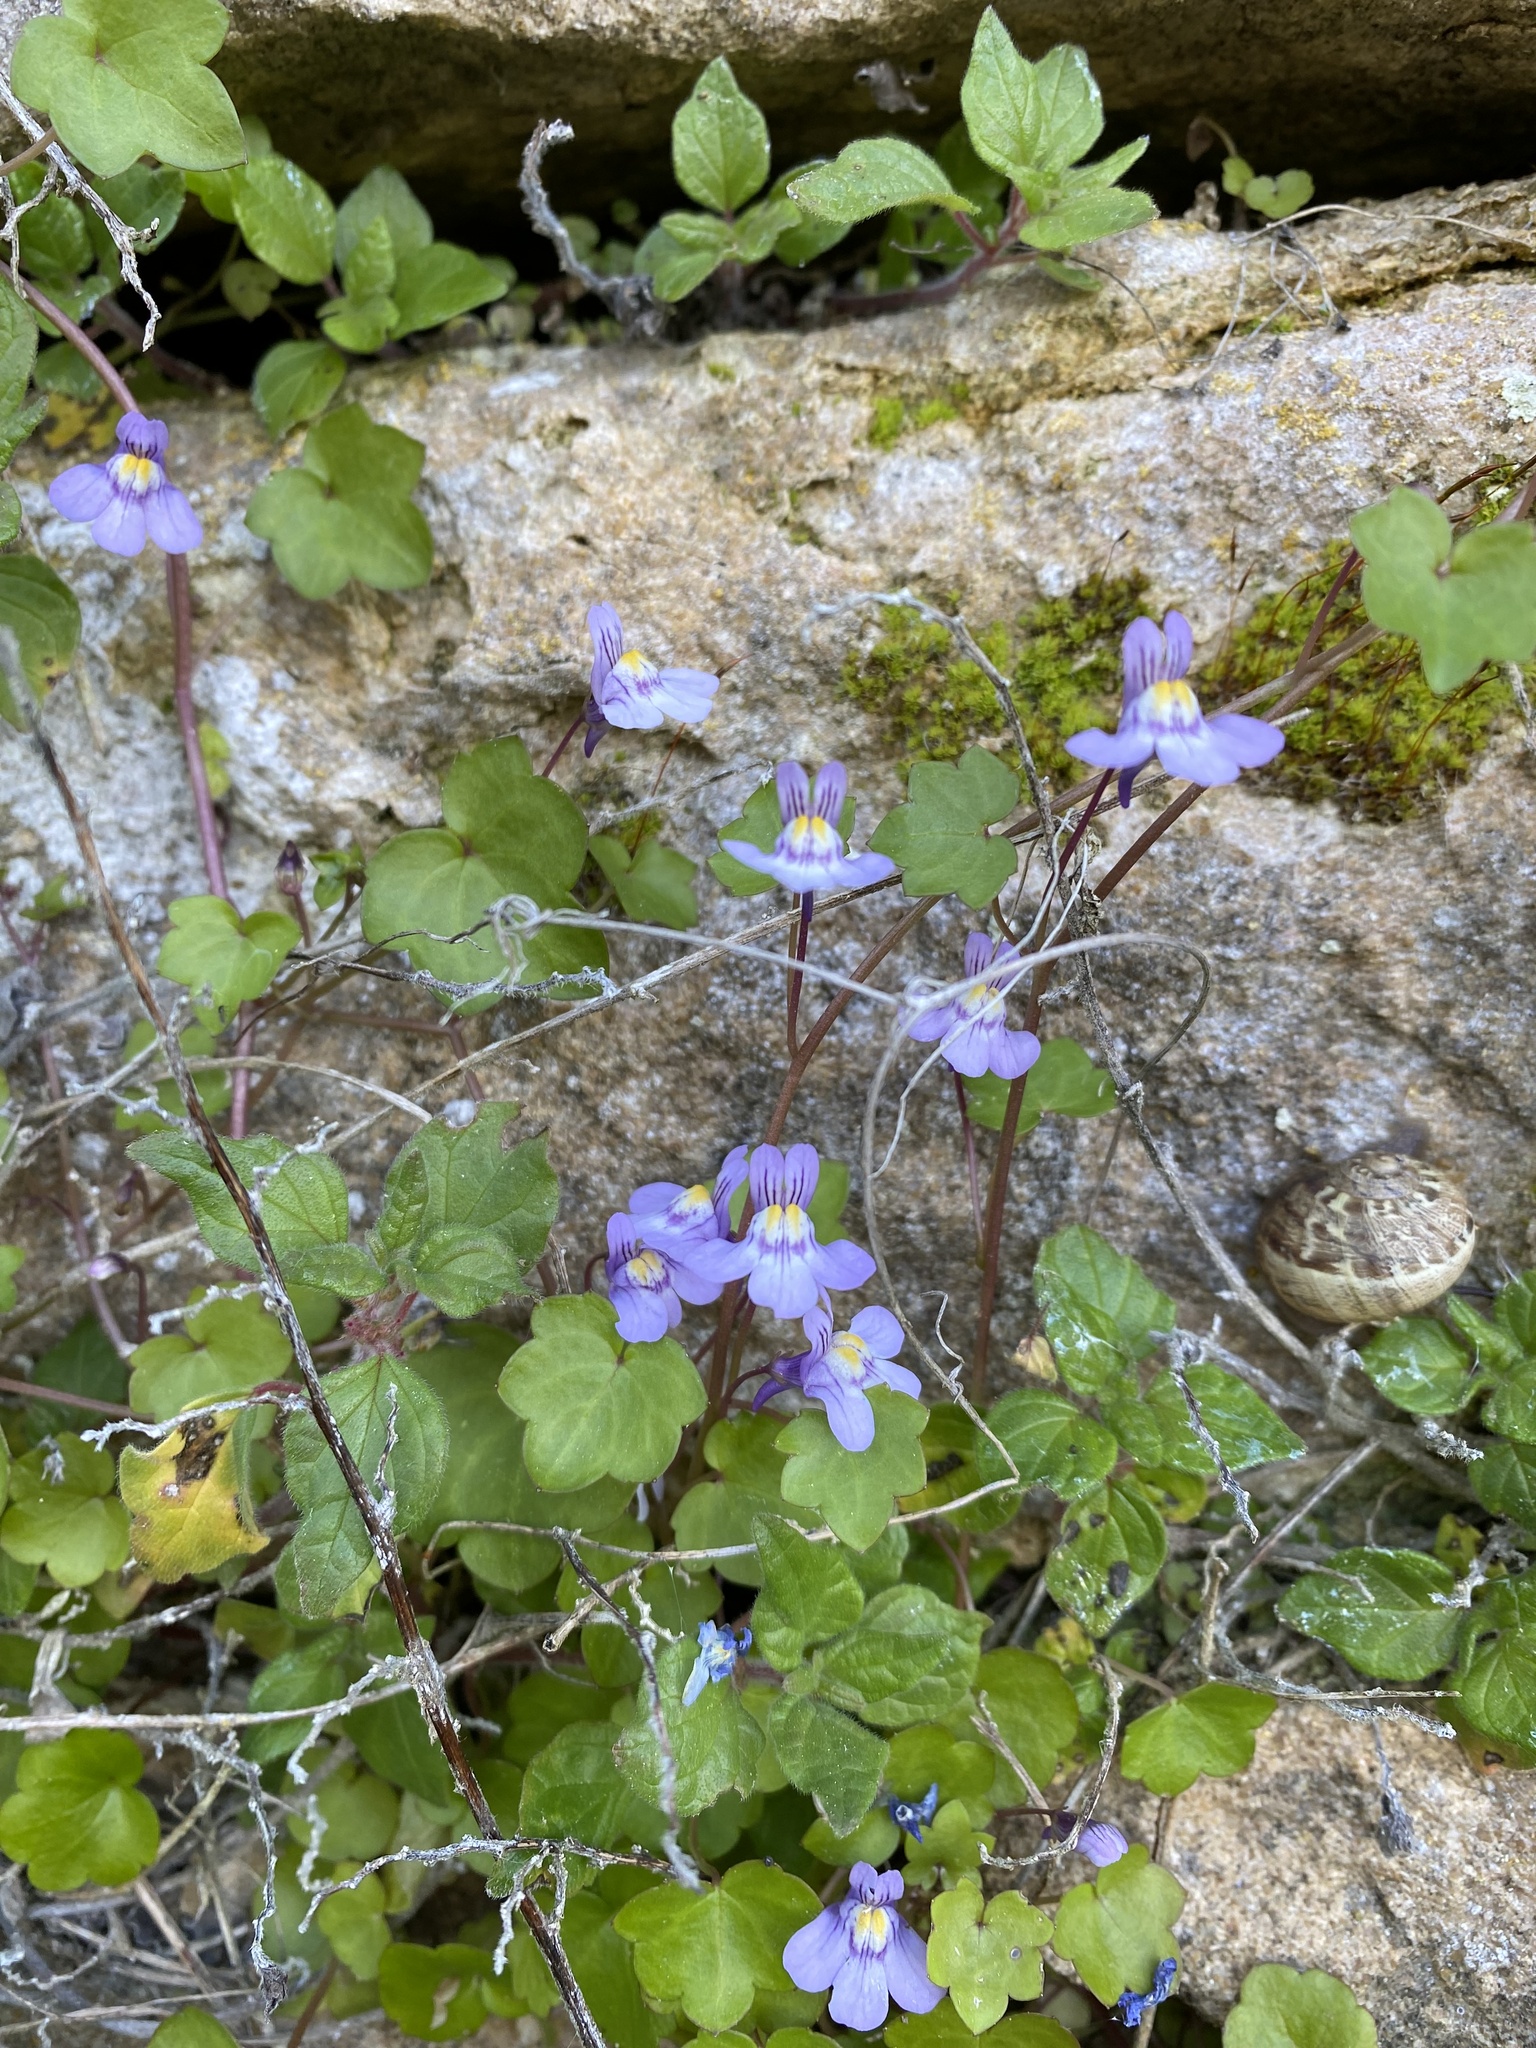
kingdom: Plantae
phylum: Tracheophyta
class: Magnoliopsida
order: Lamiales
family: Plantaginaceae
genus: Cymbalaria
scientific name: Cymbalaria muralis
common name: Ivy-leaved toadflax
